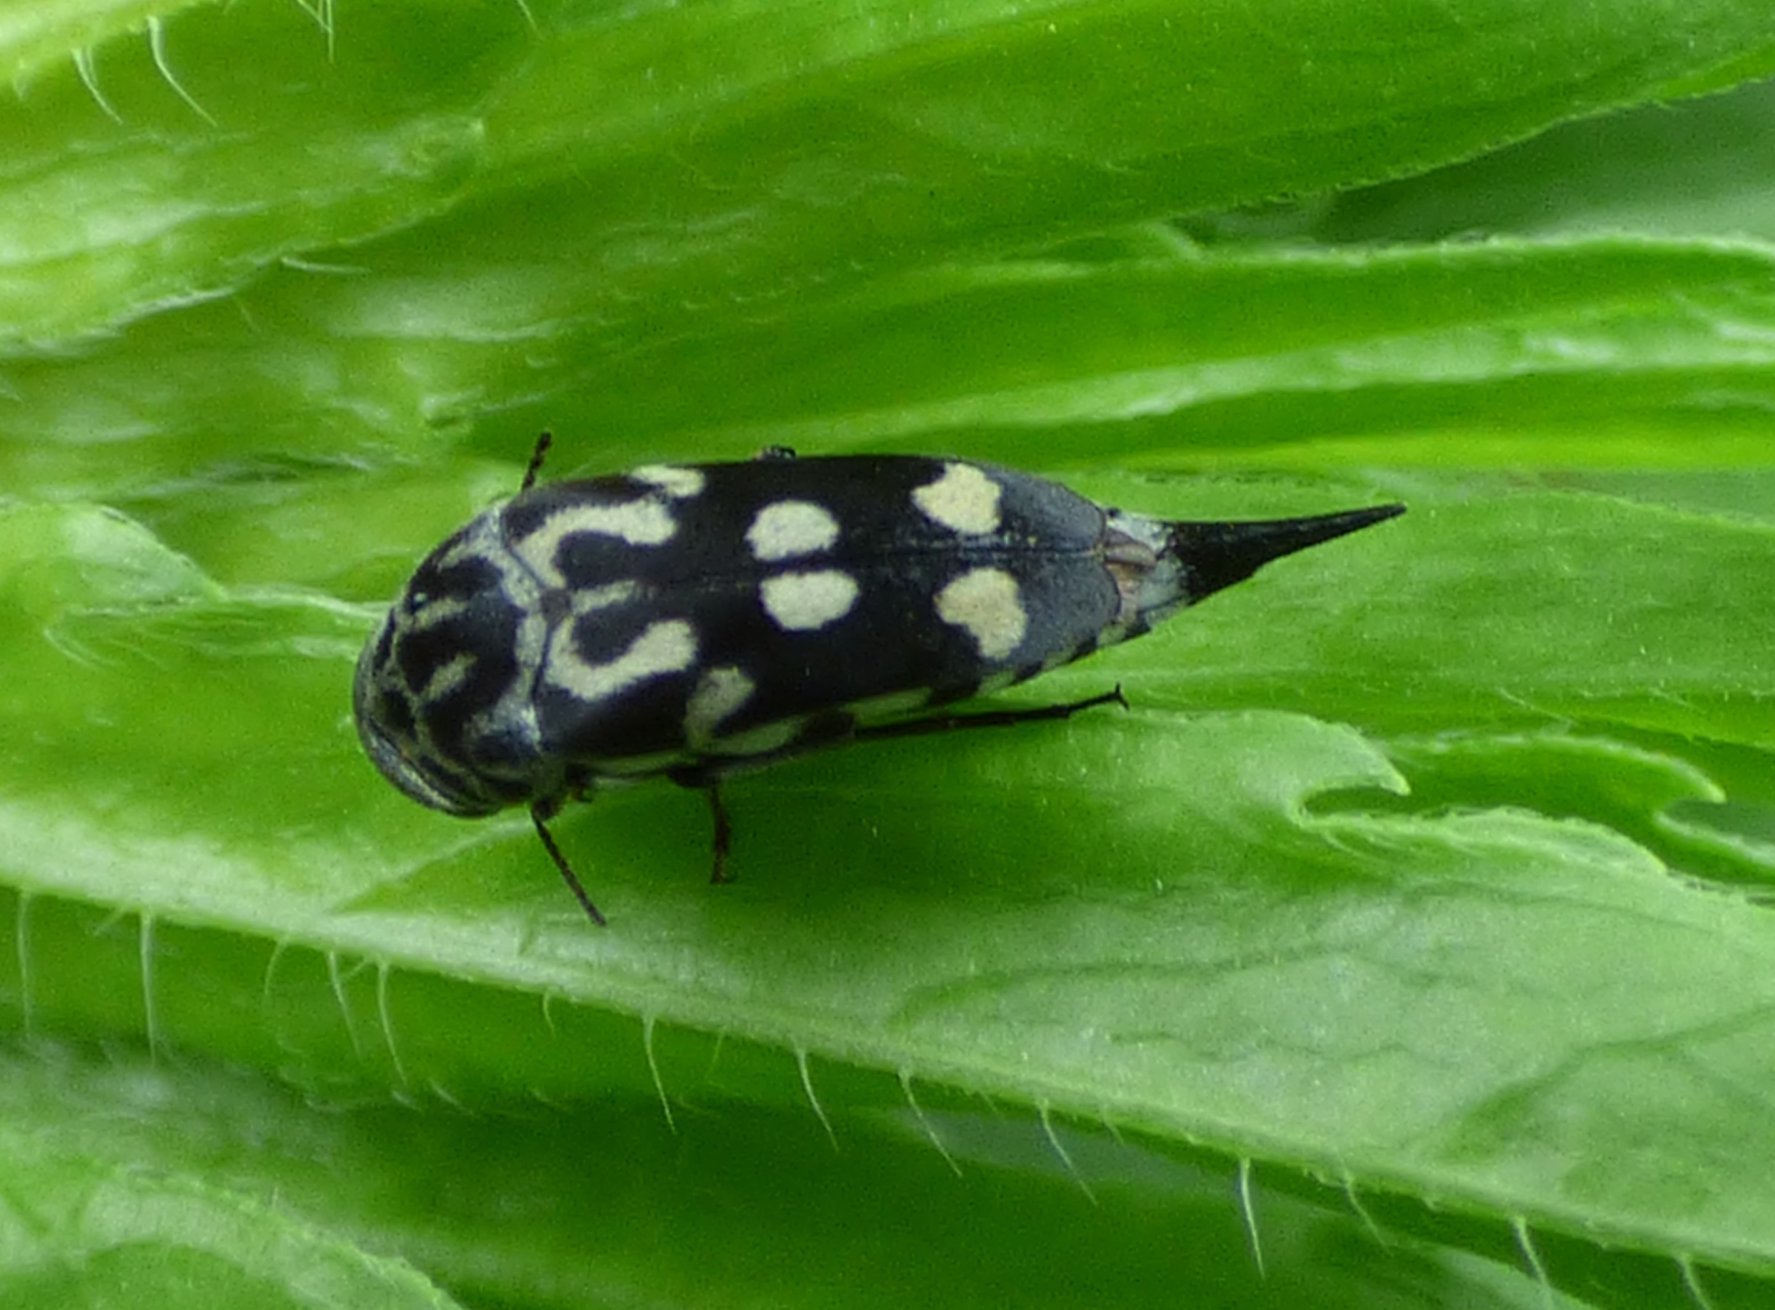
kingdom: Animalia
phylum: Arthropoda
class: Insecta
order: Coleoptera
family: Mordellidae
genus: Hoshihananomia
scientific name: Hoshihananomia octopunctata
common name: Eight-spotted tumbling flower beetle
